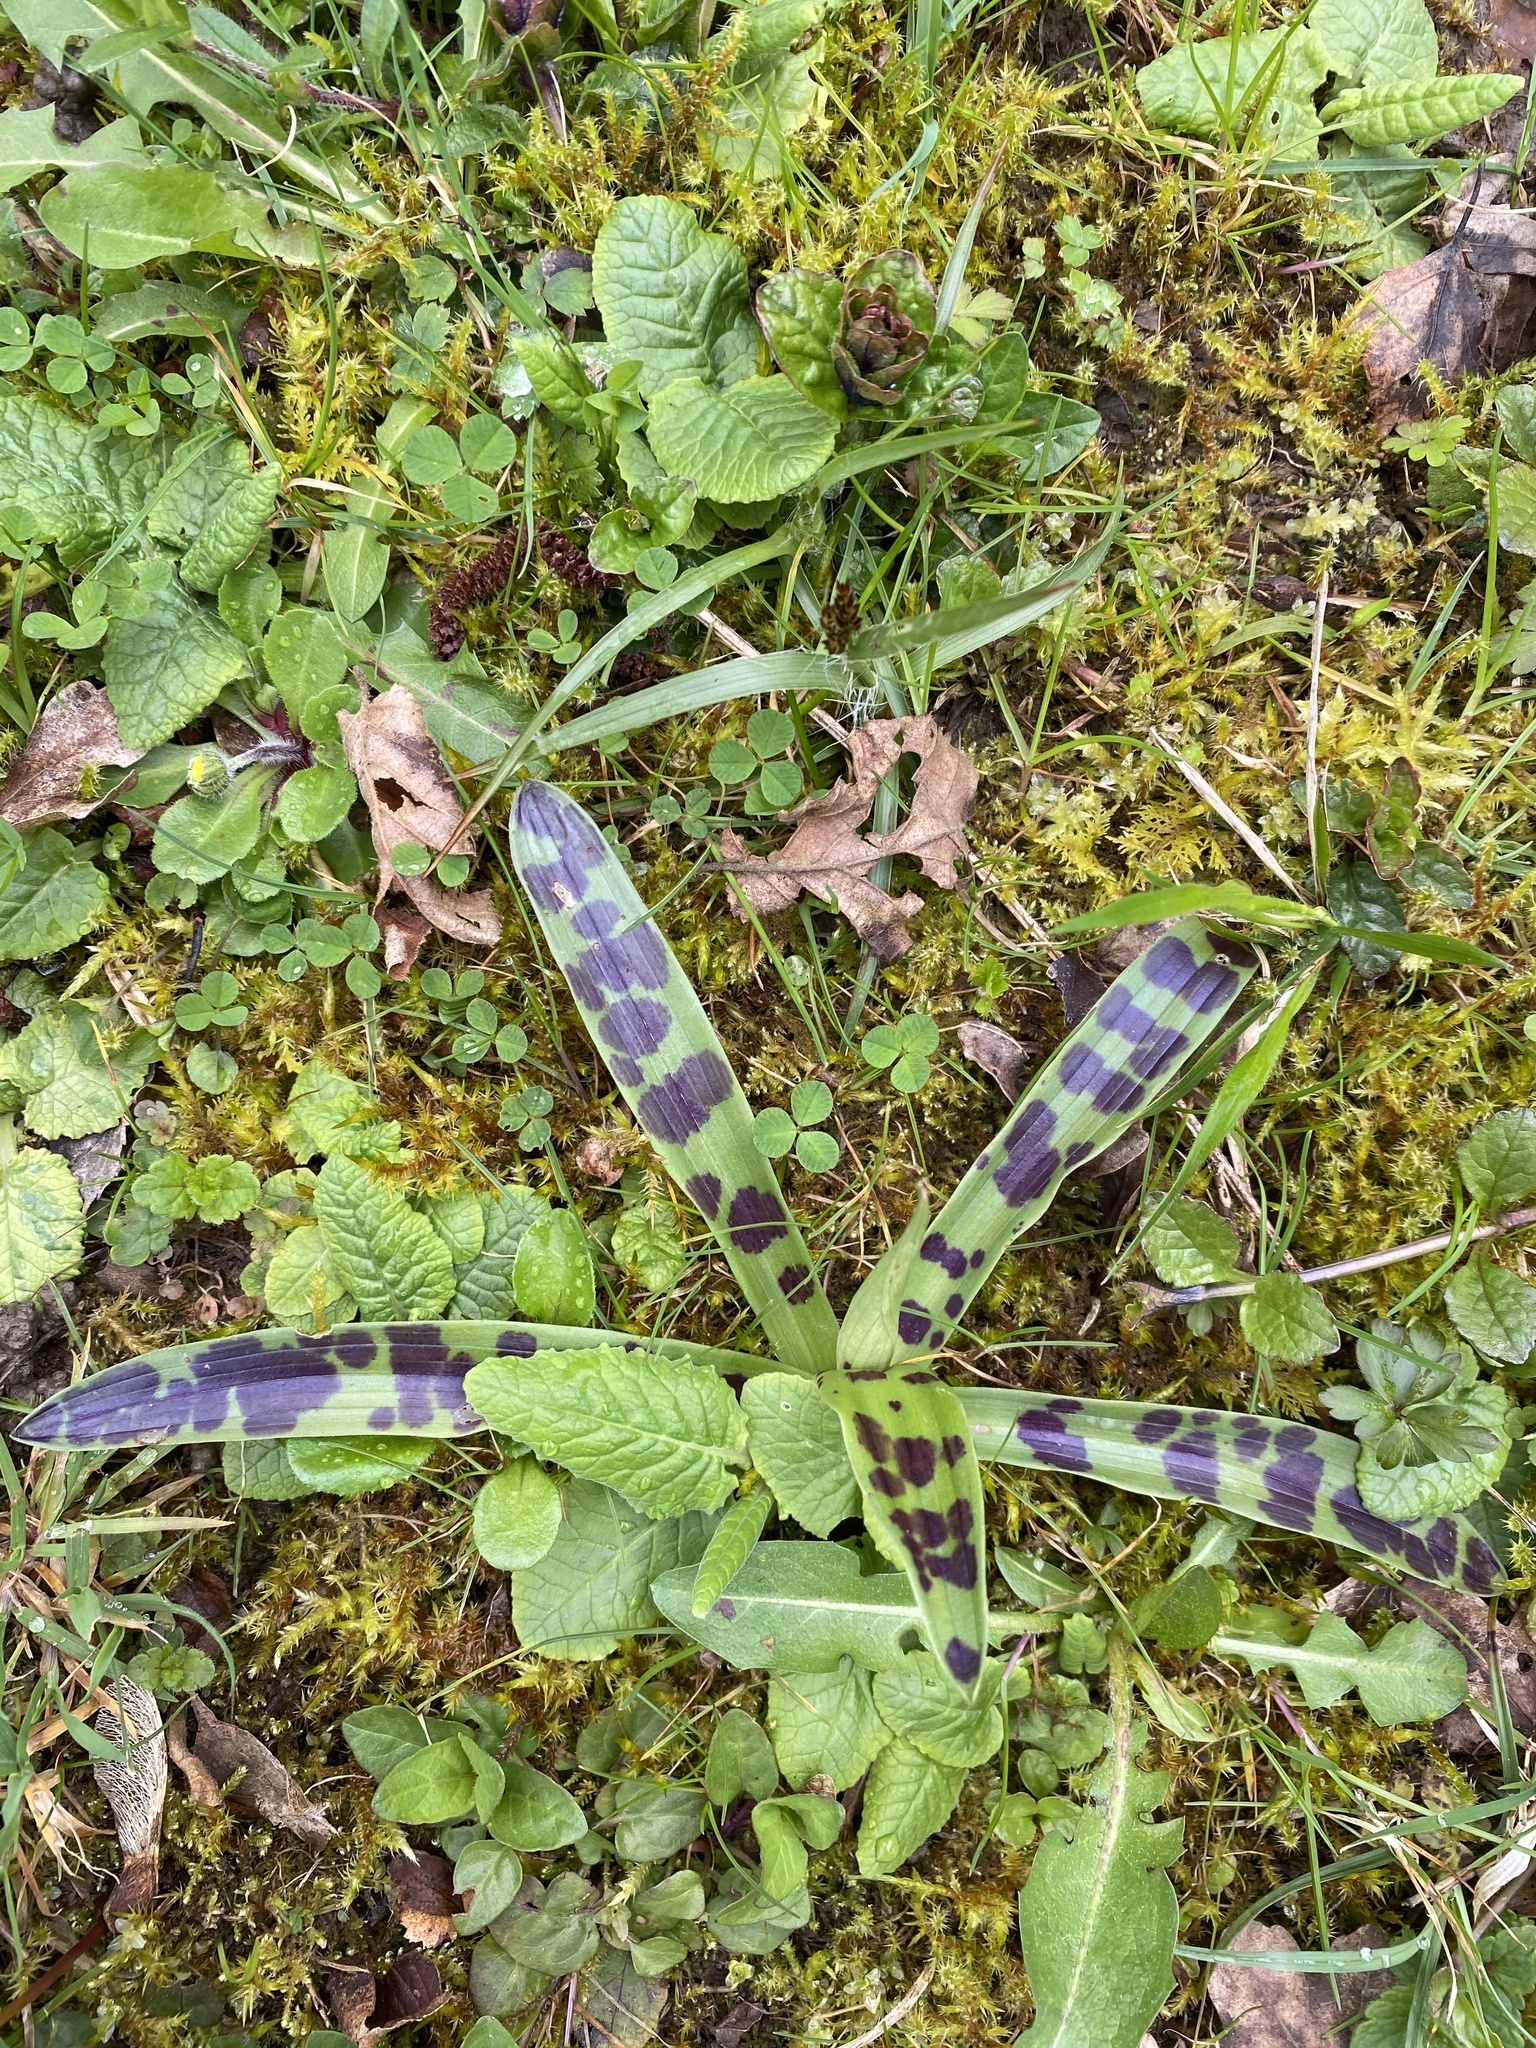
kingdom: Plantae
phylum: Tracheophyta
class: Liliopsida
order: Asparagales
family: Orchidaceae
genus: Orchis
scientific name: Orchis mascula
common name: Early-purple orchid
